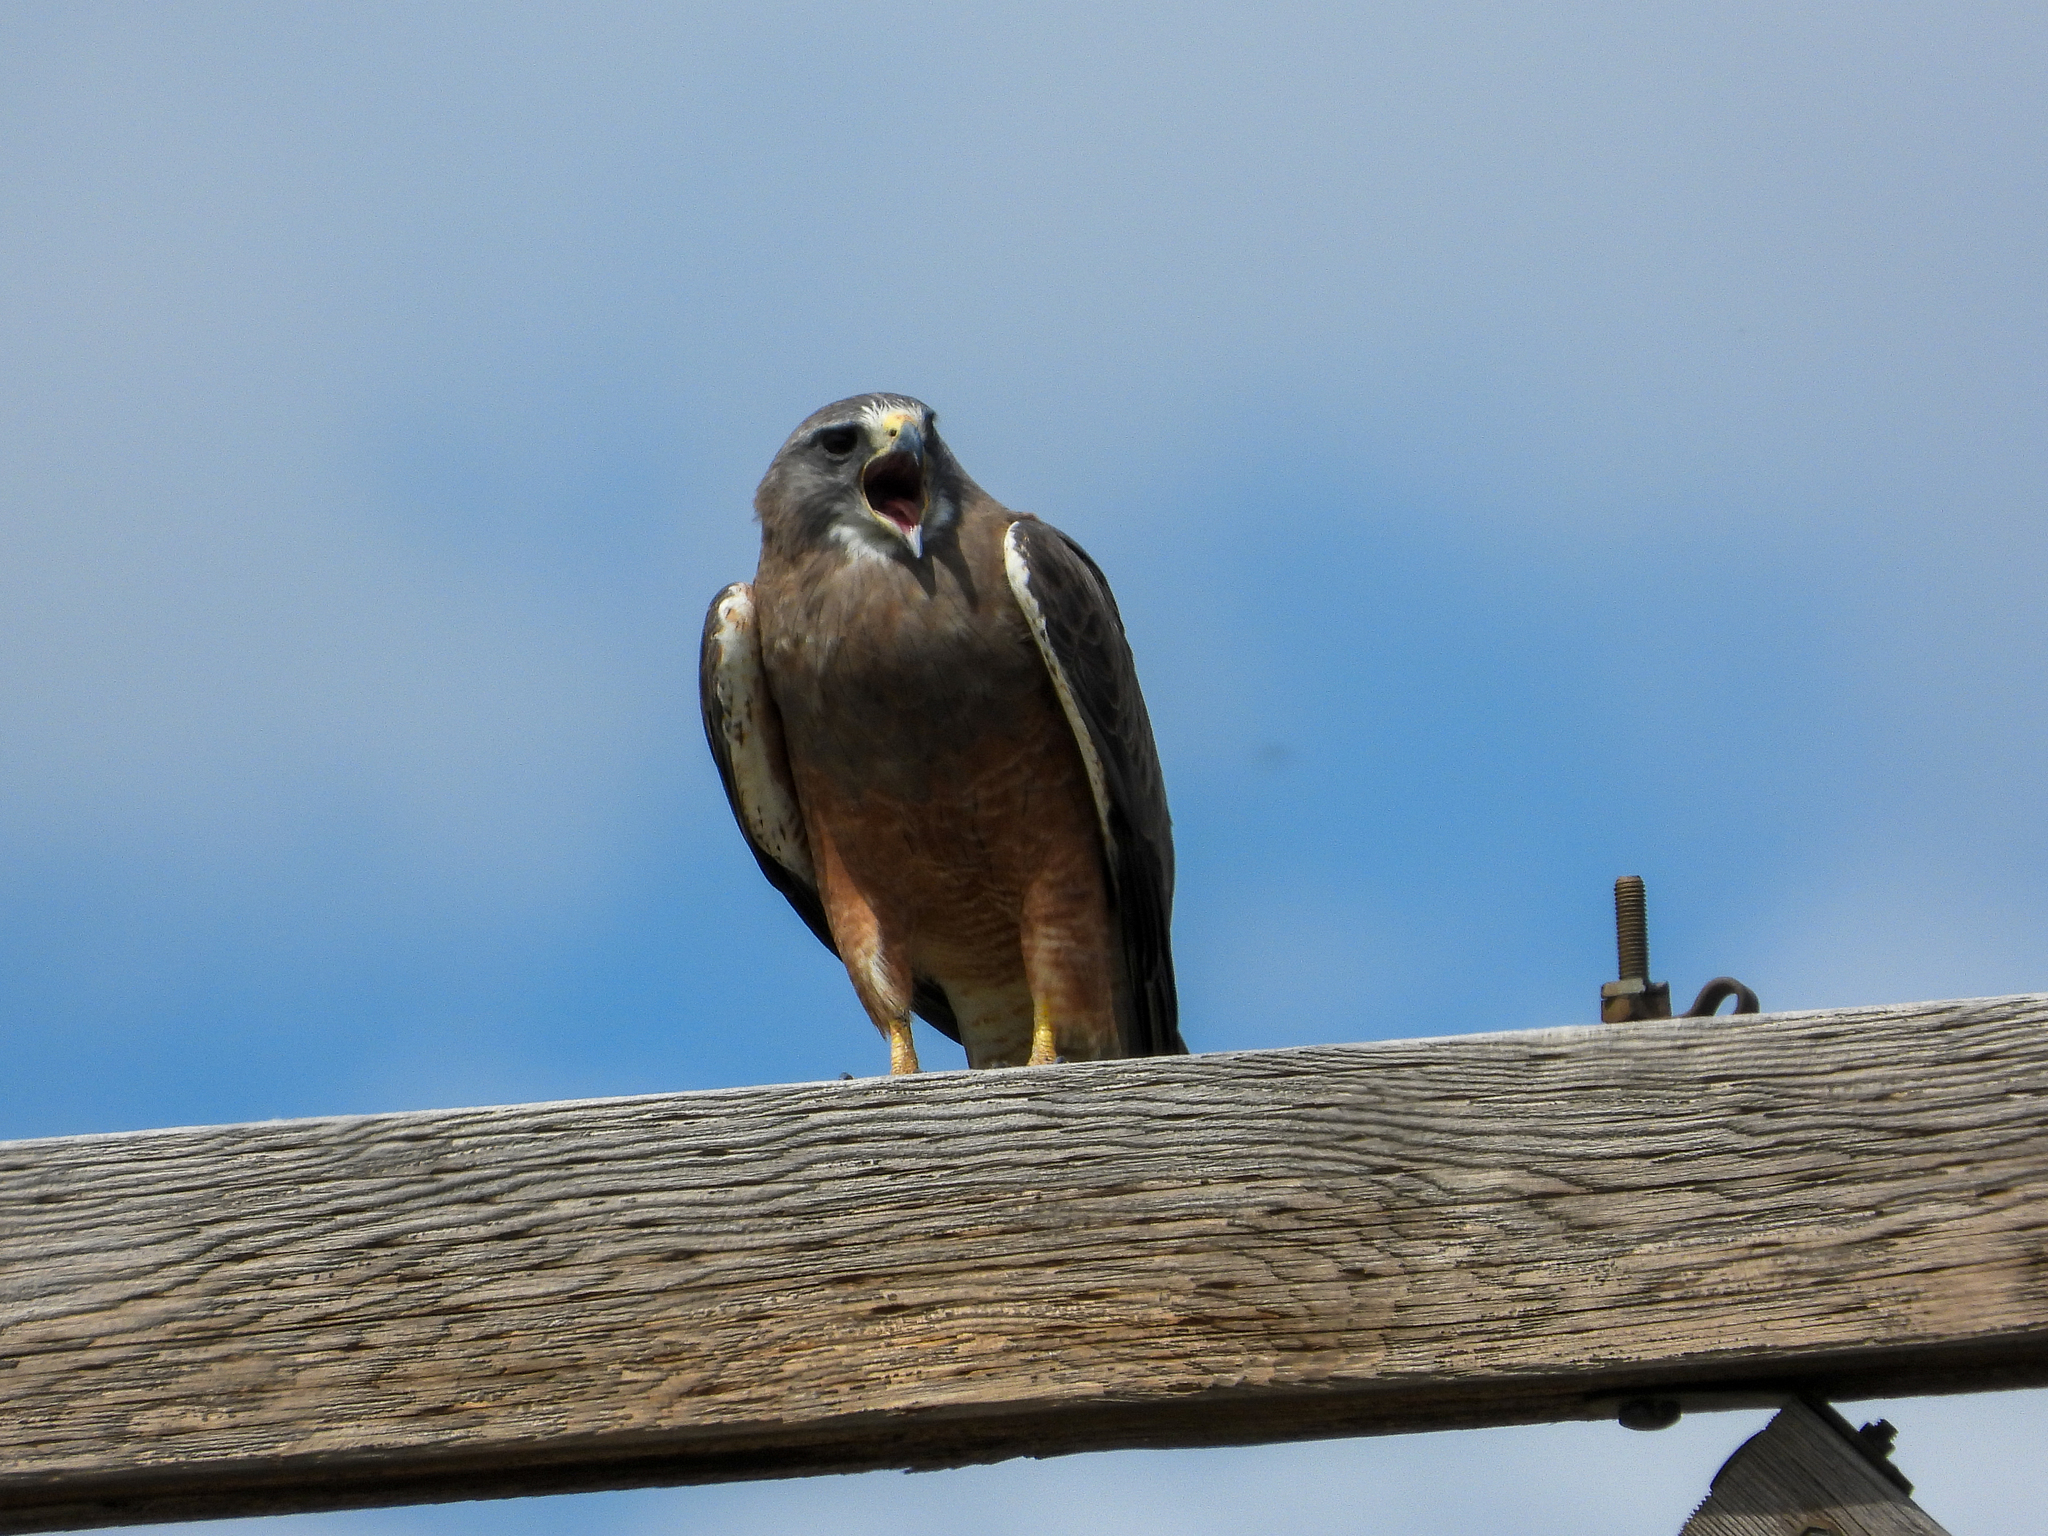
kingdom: Animalia
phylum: Chordata
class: Aves
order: Accipitriformes
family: Accipitridae
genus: Buteo
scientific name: Buteo swainsoni
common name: Swainson's hawk
